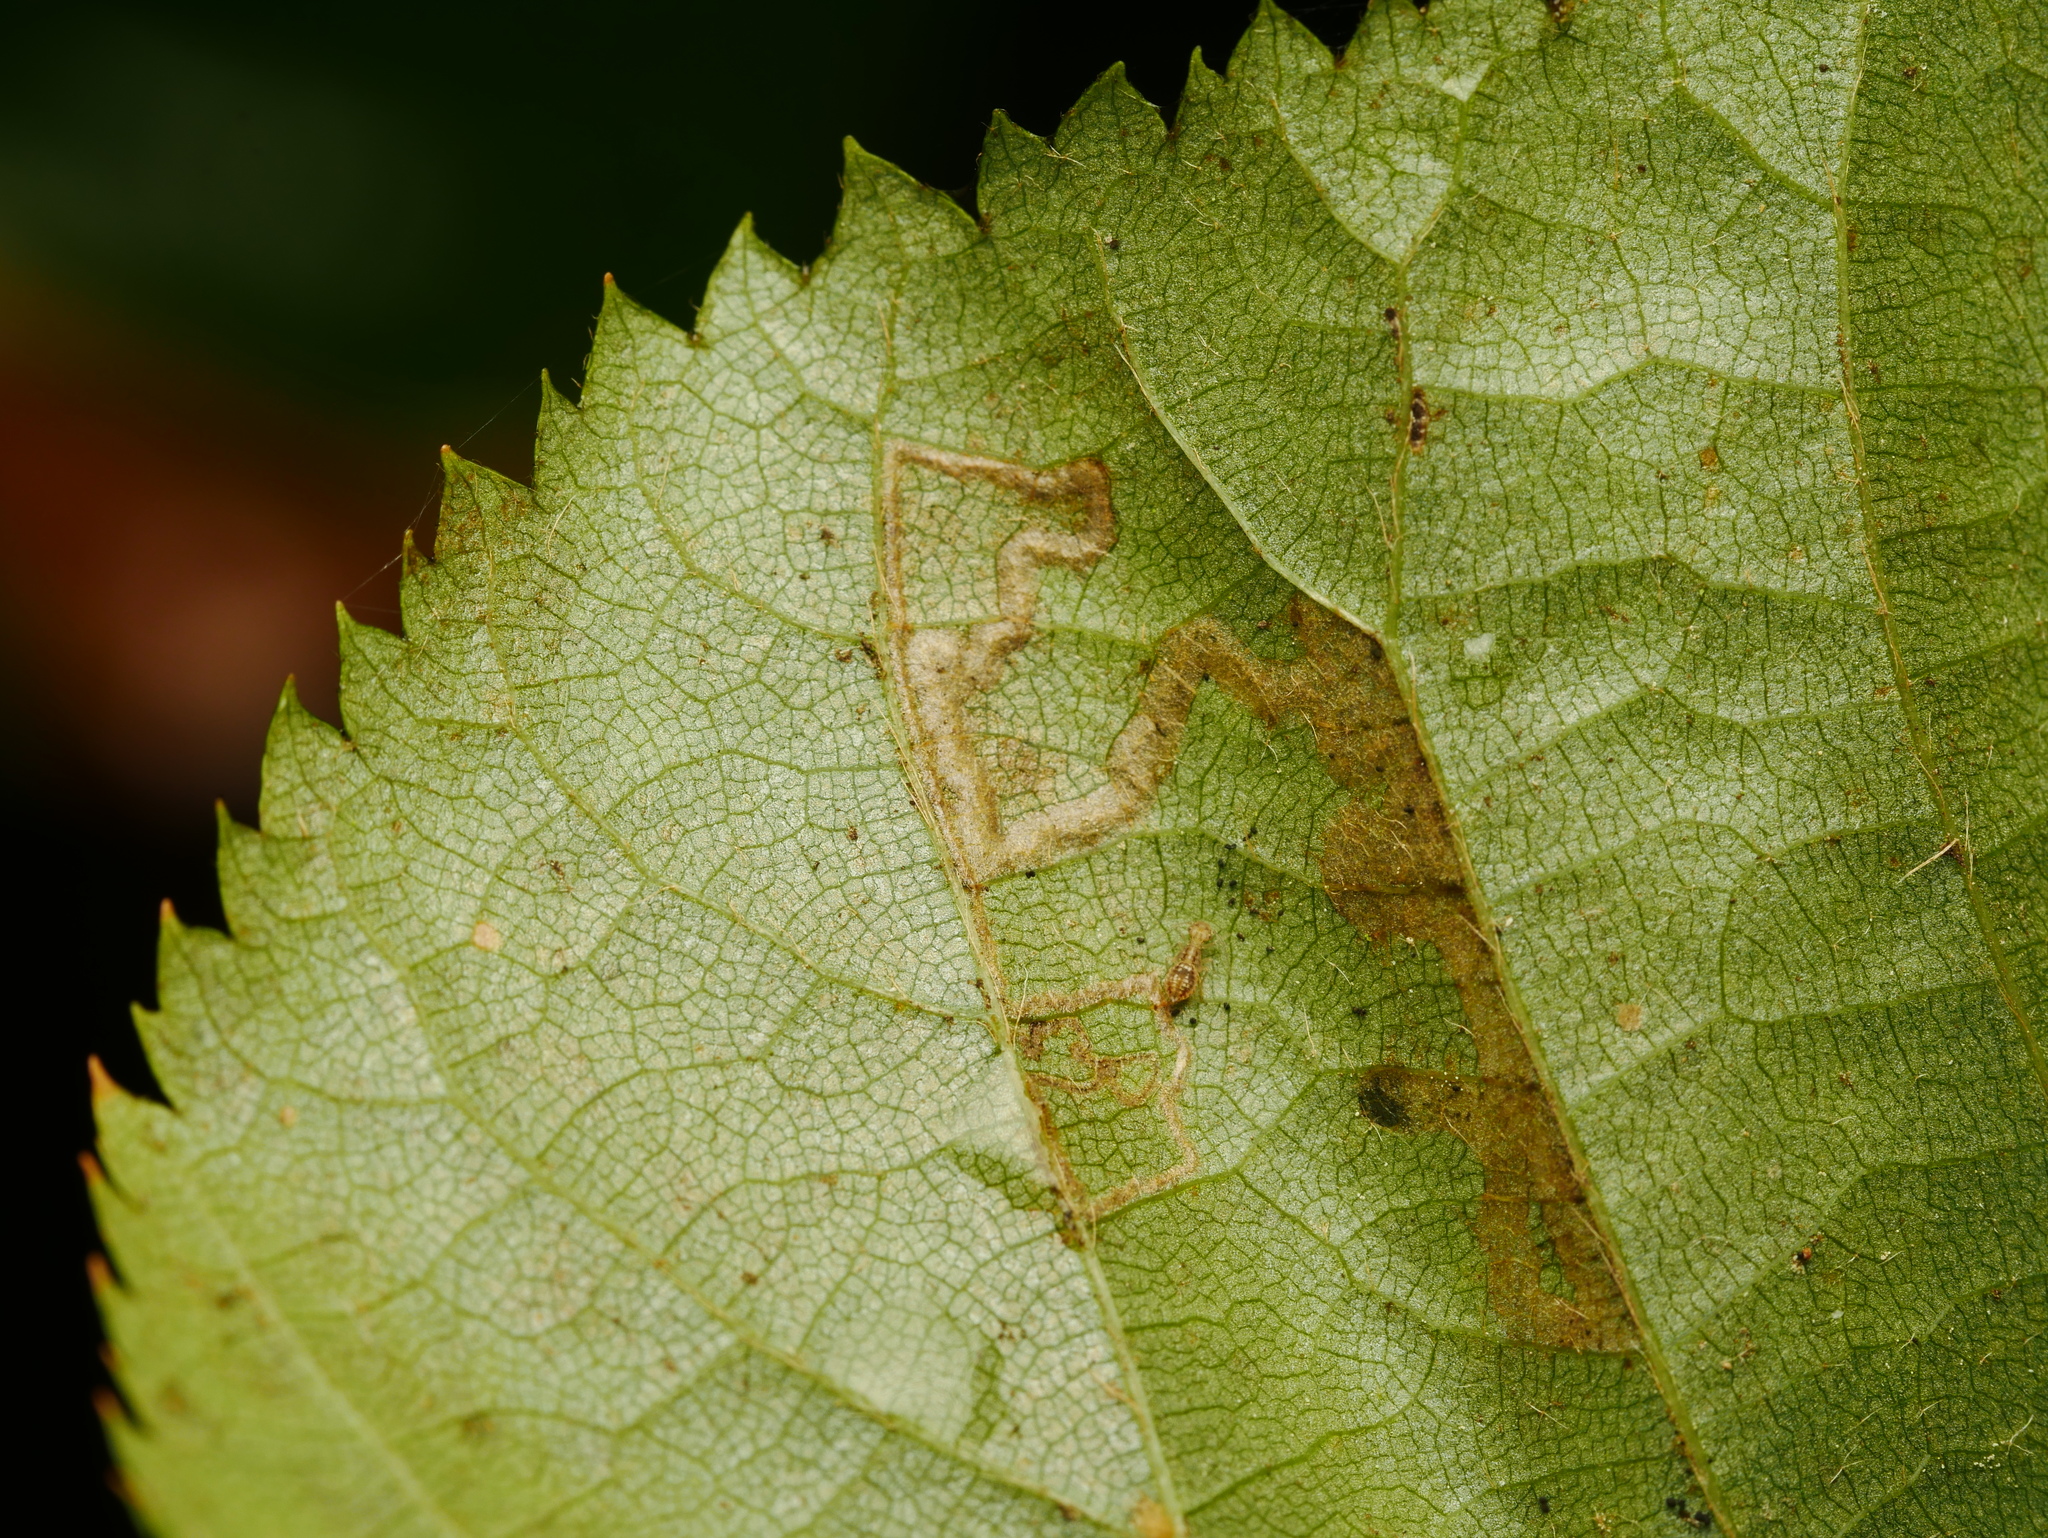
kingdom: Animalia
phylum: Arthropoda
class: Insecta
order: Lepidoptera
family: Nepticulidae
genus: Stigmella
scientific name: Stigmella tiliae
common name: Lime pigmy
